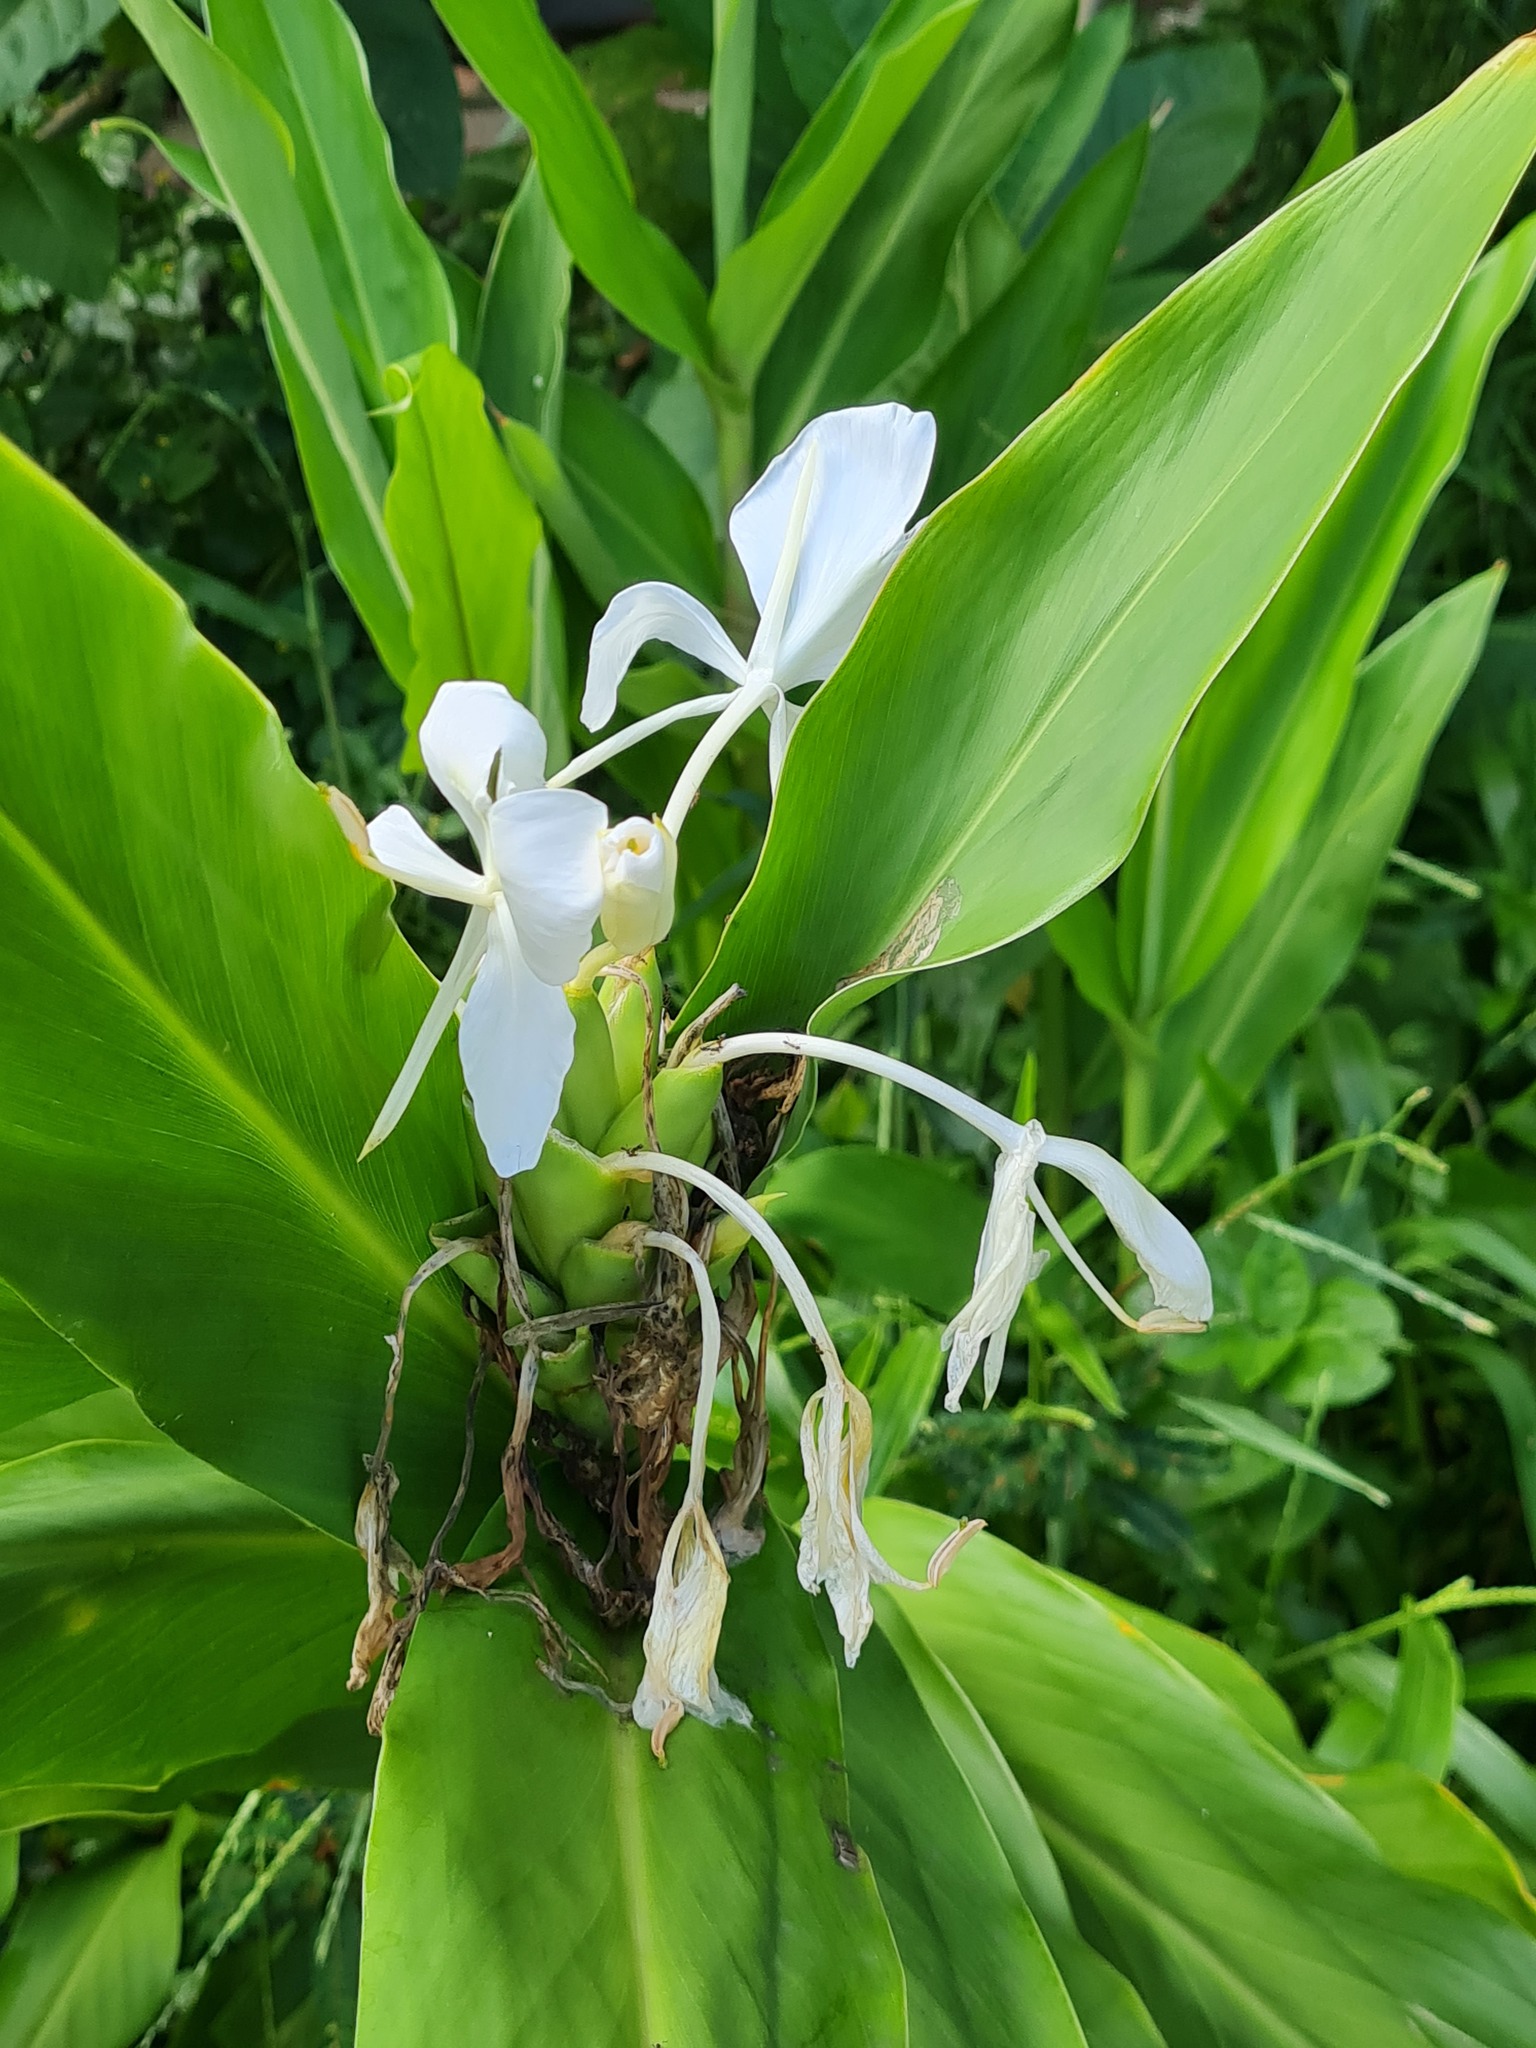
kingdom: Plantae
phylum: Tracheophyta
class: Liliopsida
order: Zingiberales
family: Zingiberaceae
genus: Hedychium
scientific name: Hedychium coronarium
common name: White garland-lily
